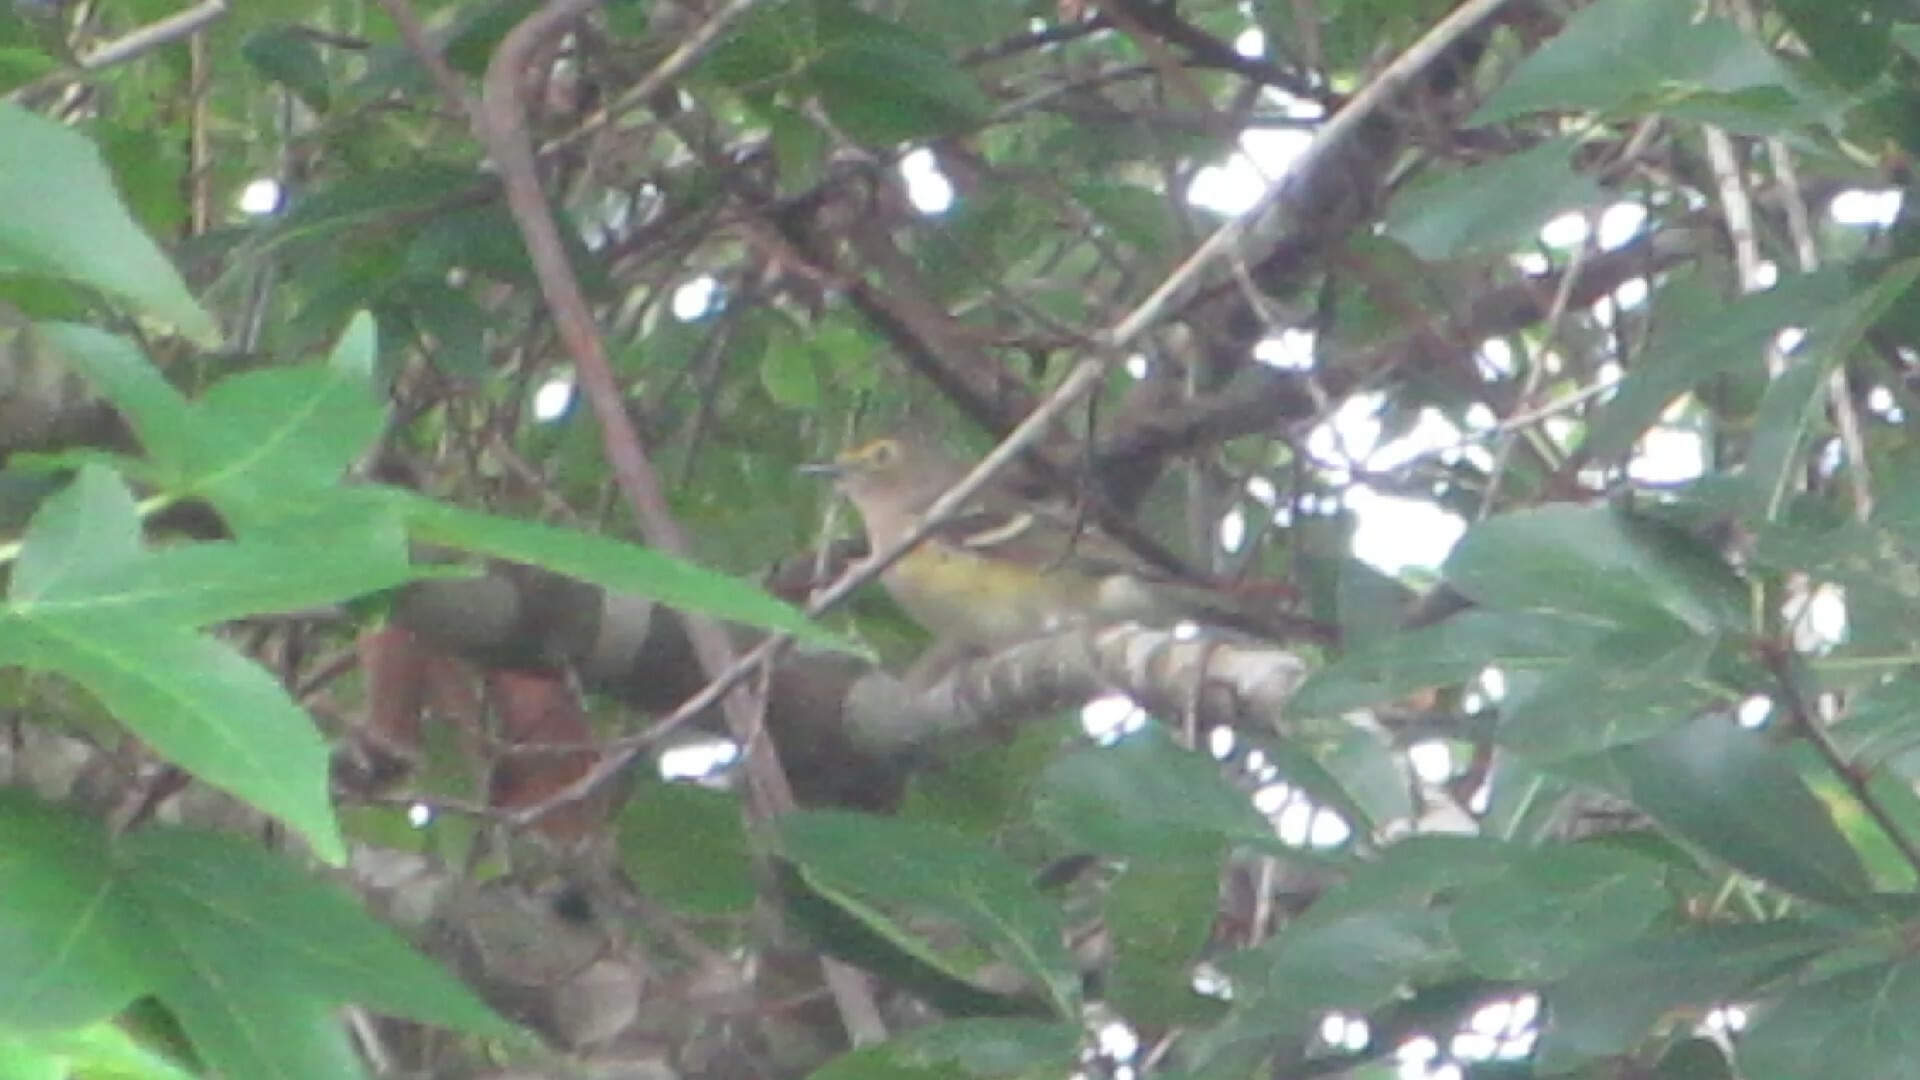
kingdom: Animalia
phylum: Chordata
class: Aves
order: Passeriformes
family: Vireonidae
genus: Vireo
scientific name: Vireo griseus
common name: White-eyed vireo
